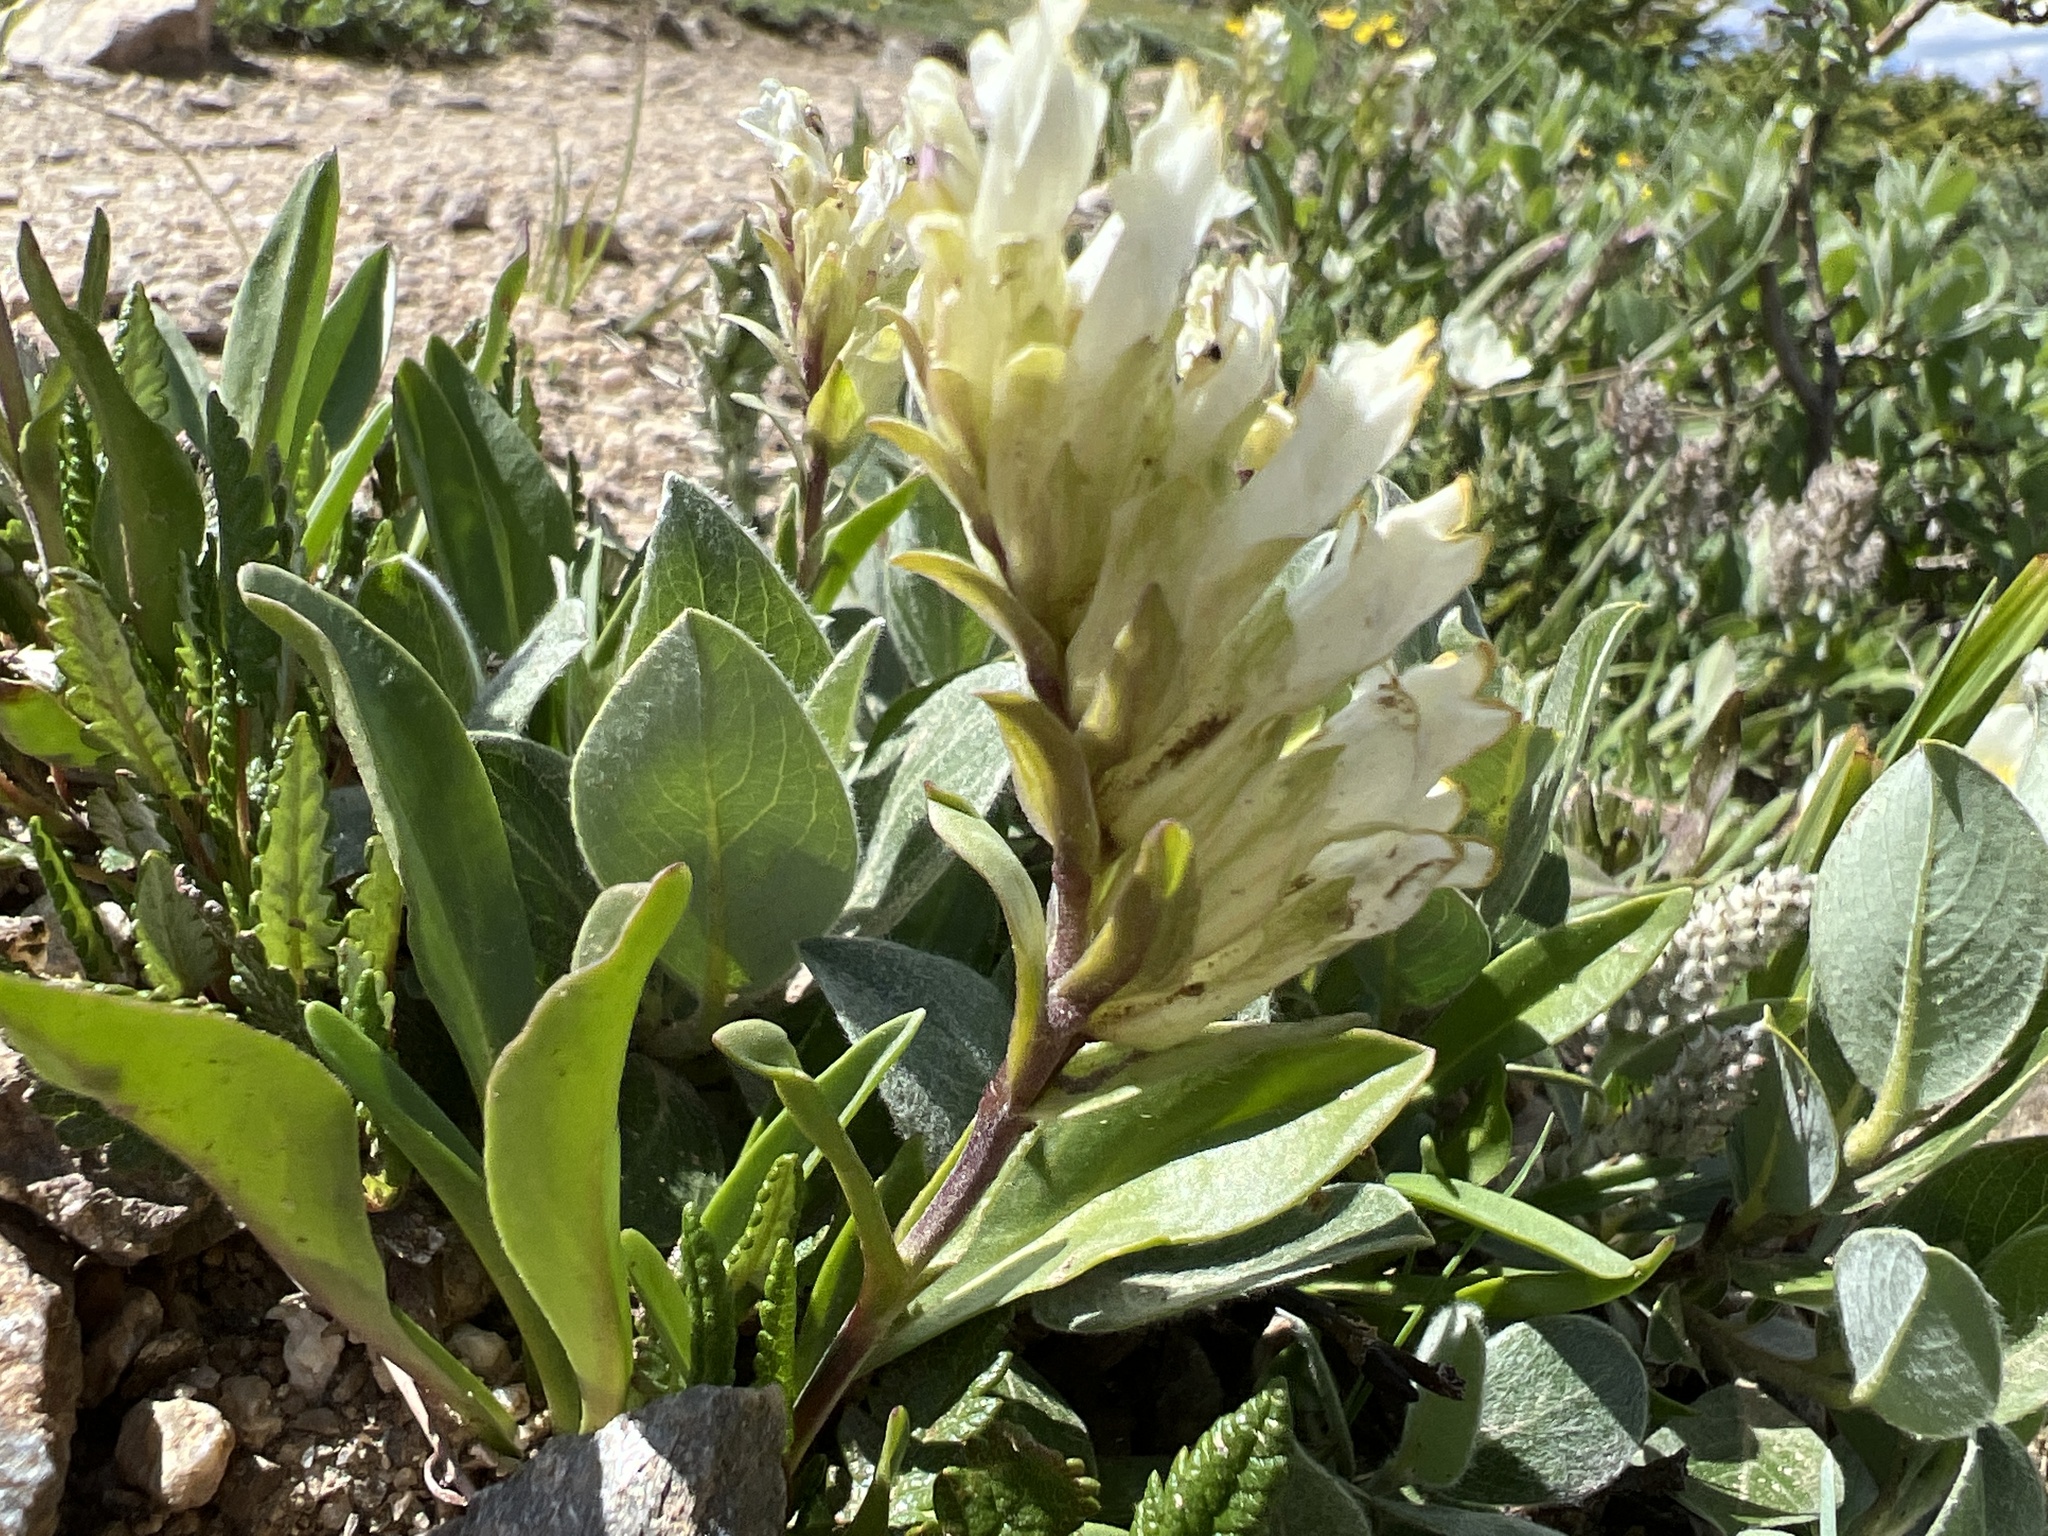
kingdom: Plantae
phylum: Tracheophyta
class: Magnoliopsida
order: Lamiales
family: Plantaginaceae
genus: Chionophila
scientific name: Chionophila jamesii
